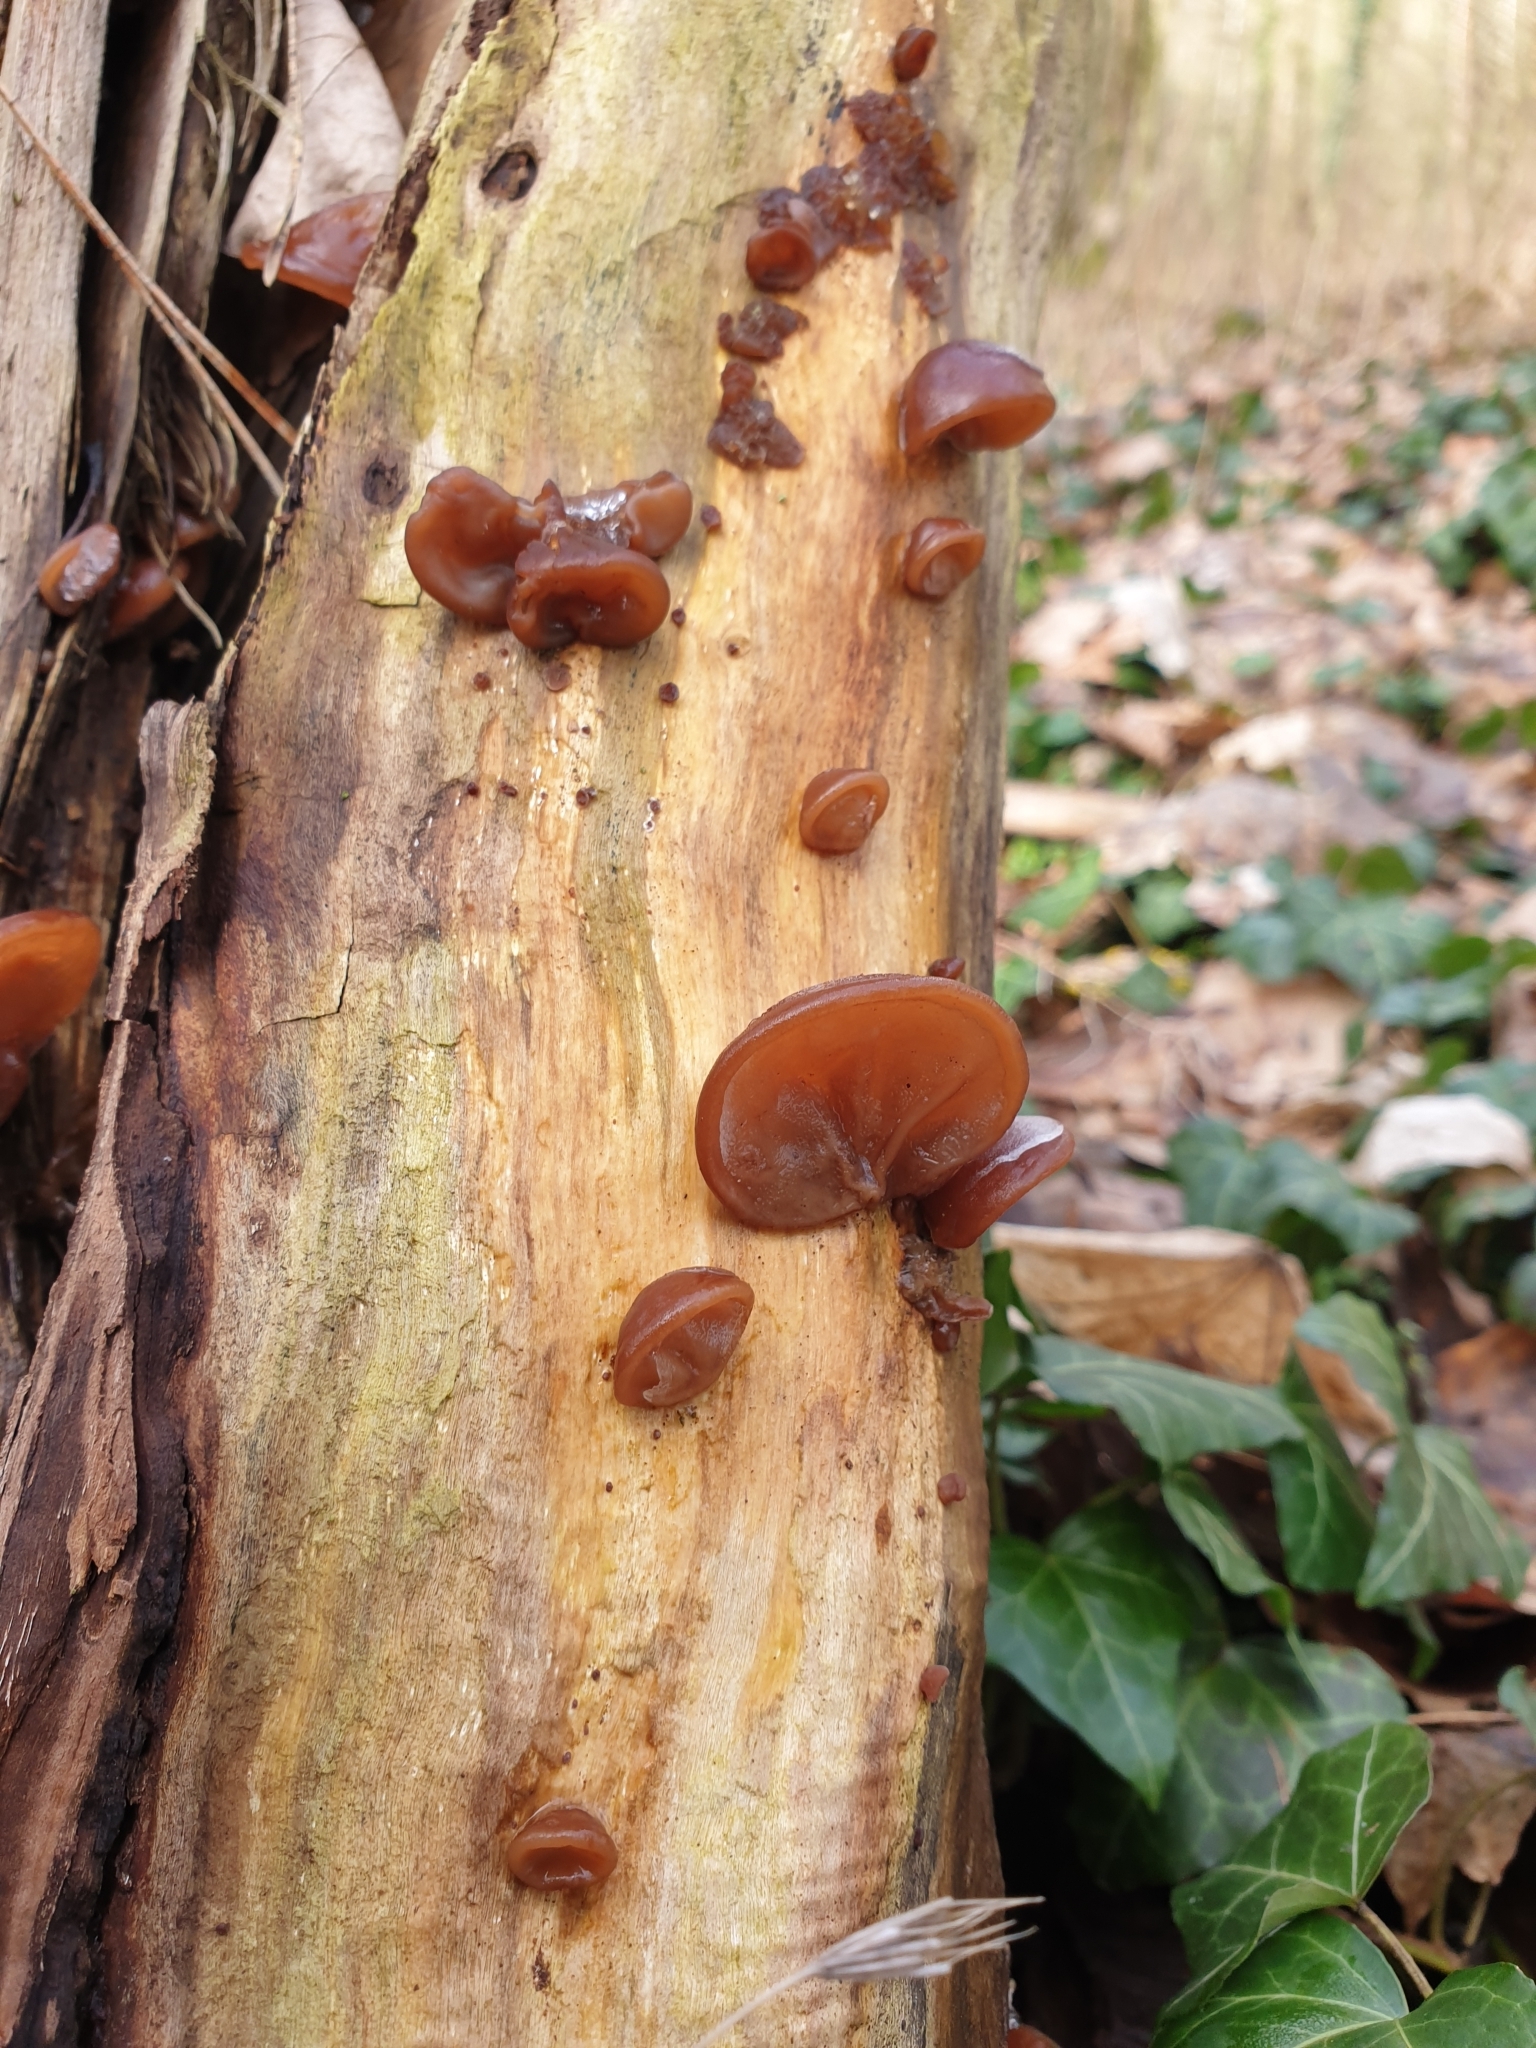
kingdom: Fungi
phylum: Basidiomycota
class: Agaricomycetes
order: Auriculariales
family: Auriculariaceae
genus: Auricularia
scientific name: Auricularia auricula-judae
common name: Jelly ear
